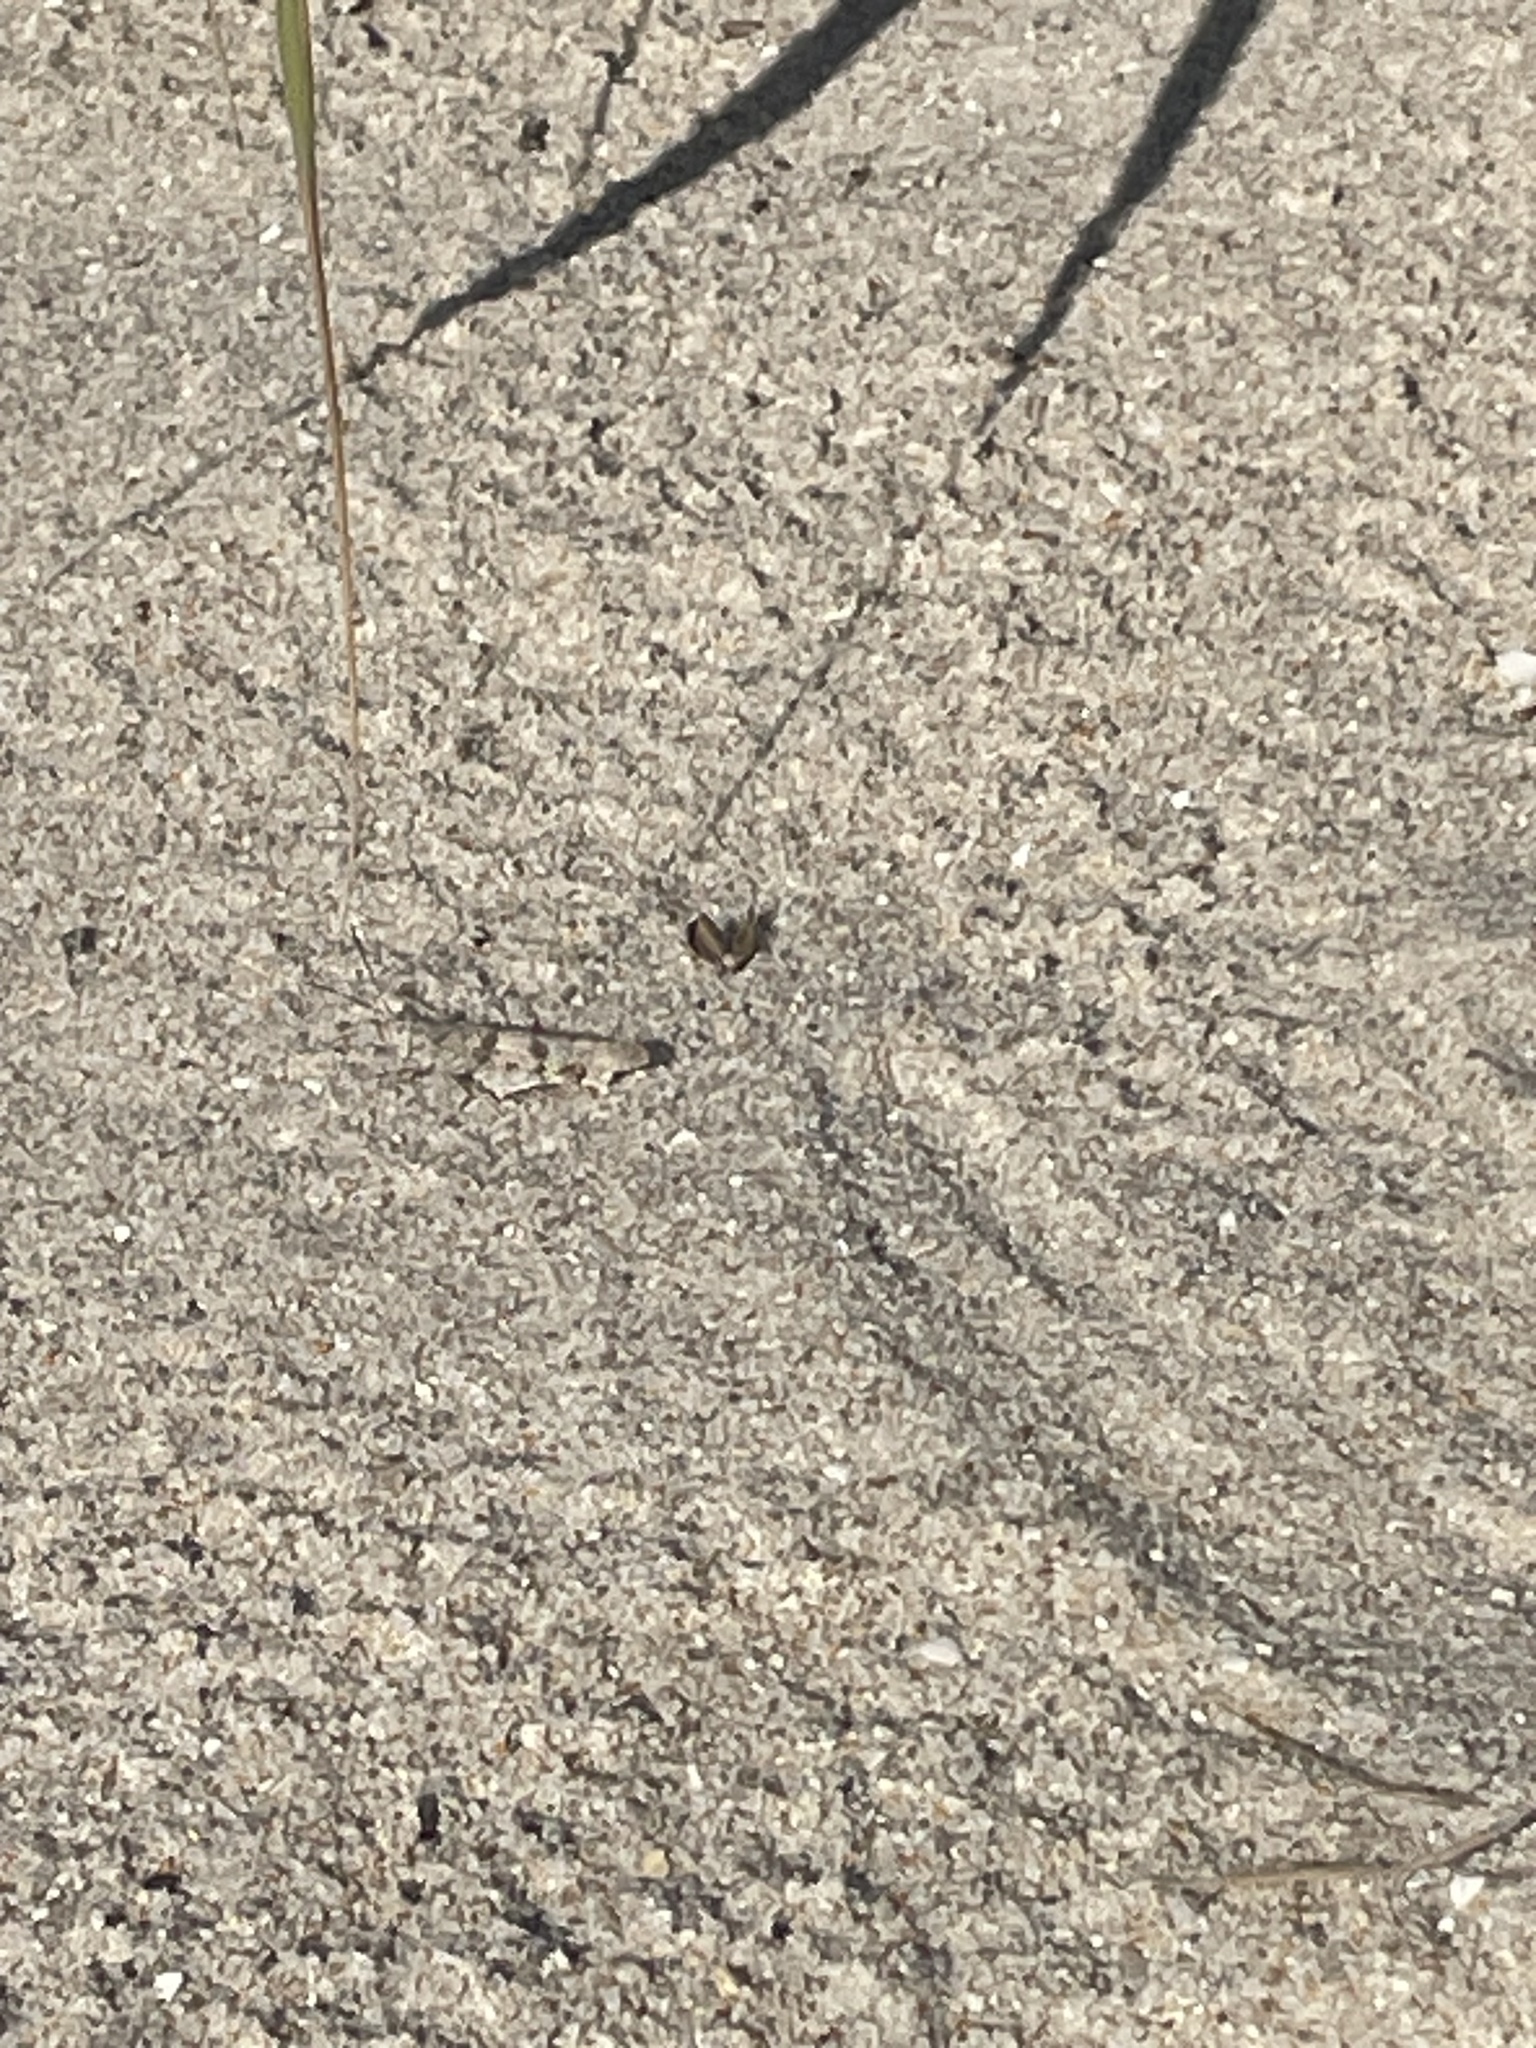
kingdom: Animalia
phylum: Arthropoda
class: Insecta
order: Orthoptera
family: Acrididae
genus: Trimerotropis
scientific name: Trimerotropis maritima
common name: Seaside locust
